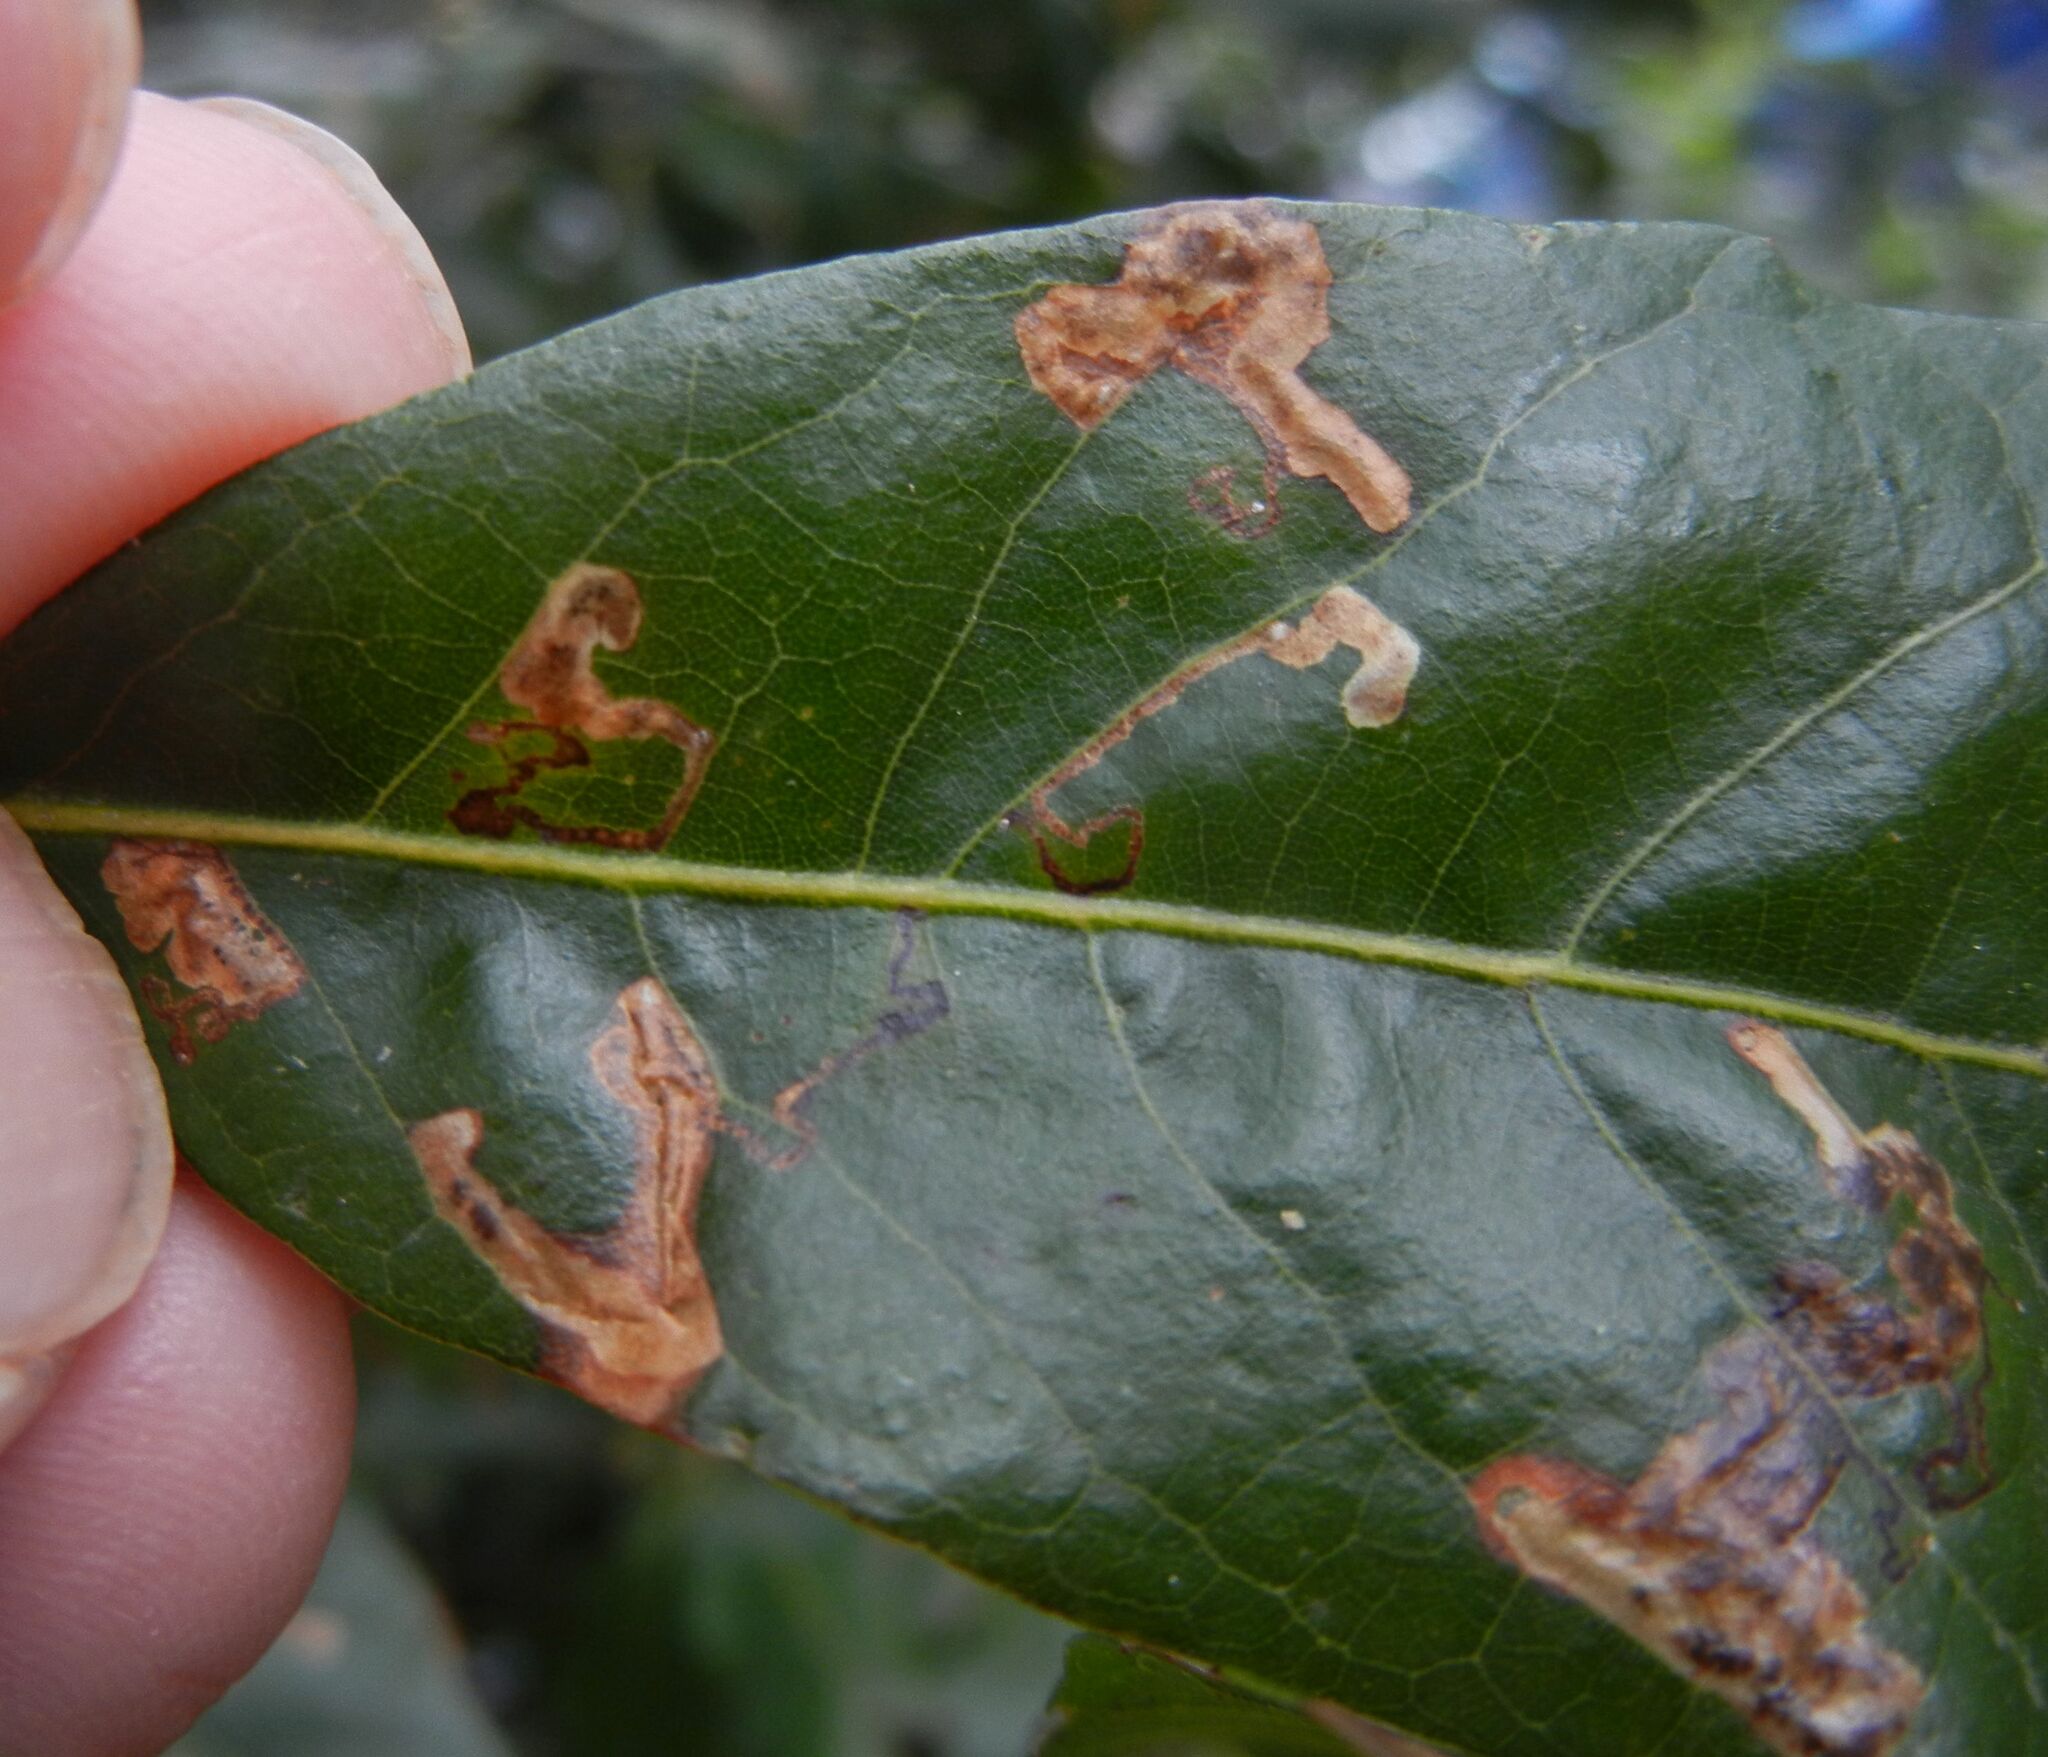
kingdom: Animalia
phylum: Arthropoda
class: Insecta
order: Lepidoptera
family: Nepticulidae
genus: Ectoedemia
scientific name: Ectoedemia heringella
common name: New holm-oak pigmy
